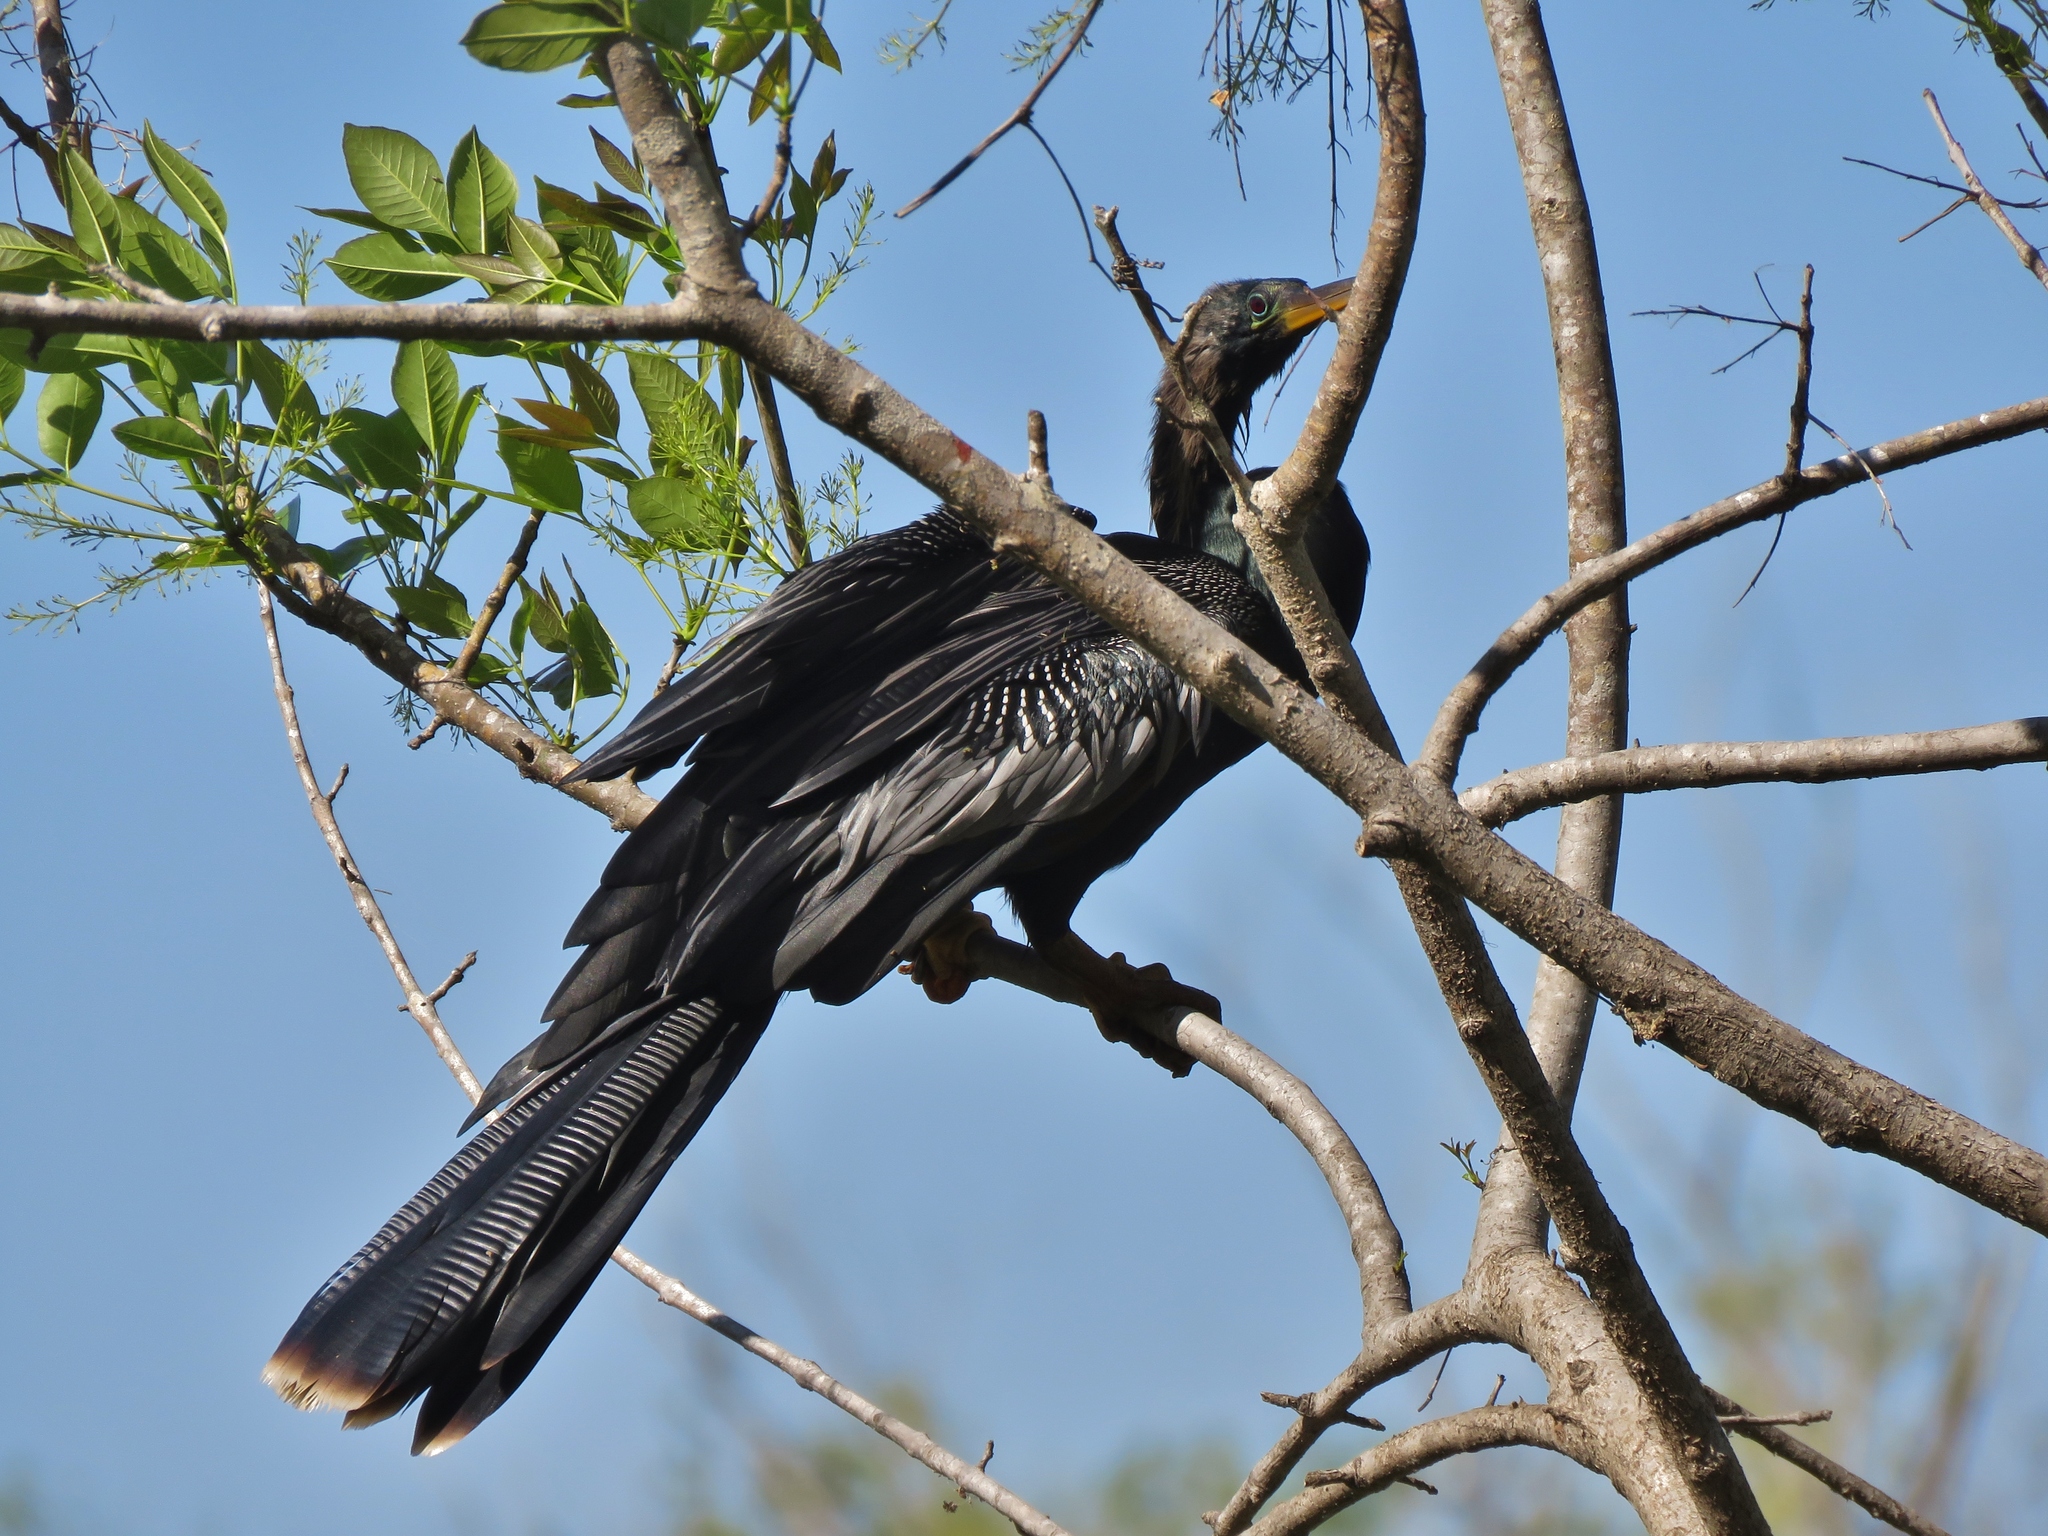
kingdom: Animalia
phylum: Chordata
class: Aves
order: Suliformes
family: Anhingidae
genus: Anhinga
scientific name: Anhinga anhinga
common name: Anhinga
